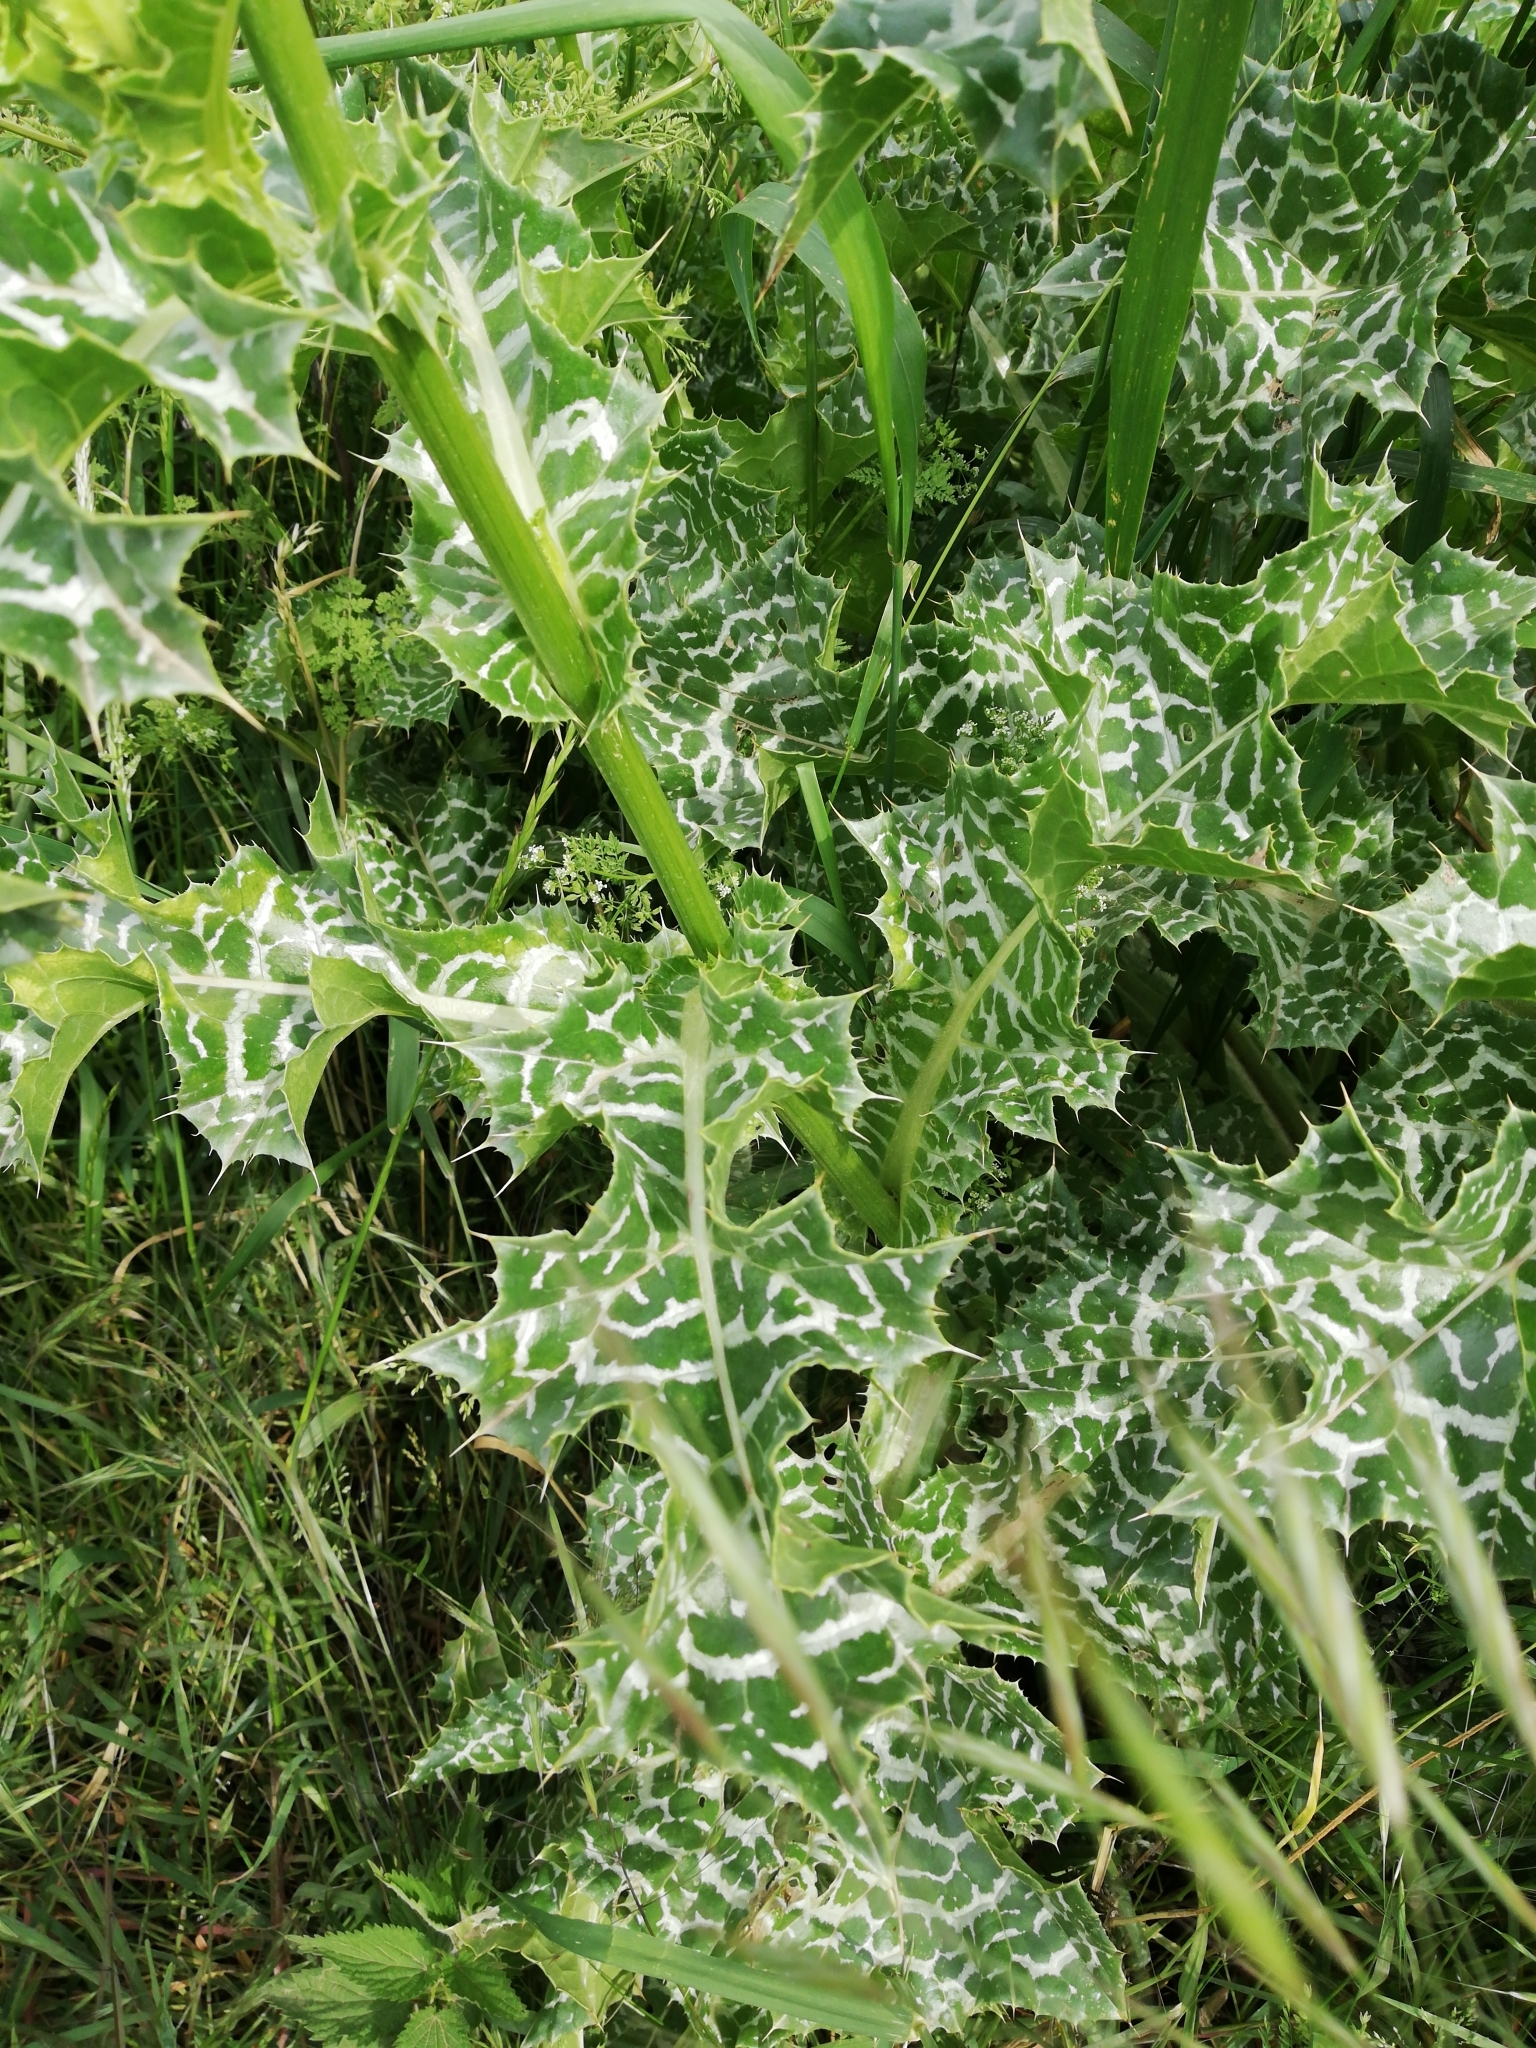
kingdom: Plantae
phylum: Tracheophyta
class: Magnoliopsida
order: Asterales
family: Asteraceae
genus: Silybum
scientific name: Silybum marianum
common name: Milk thistle
